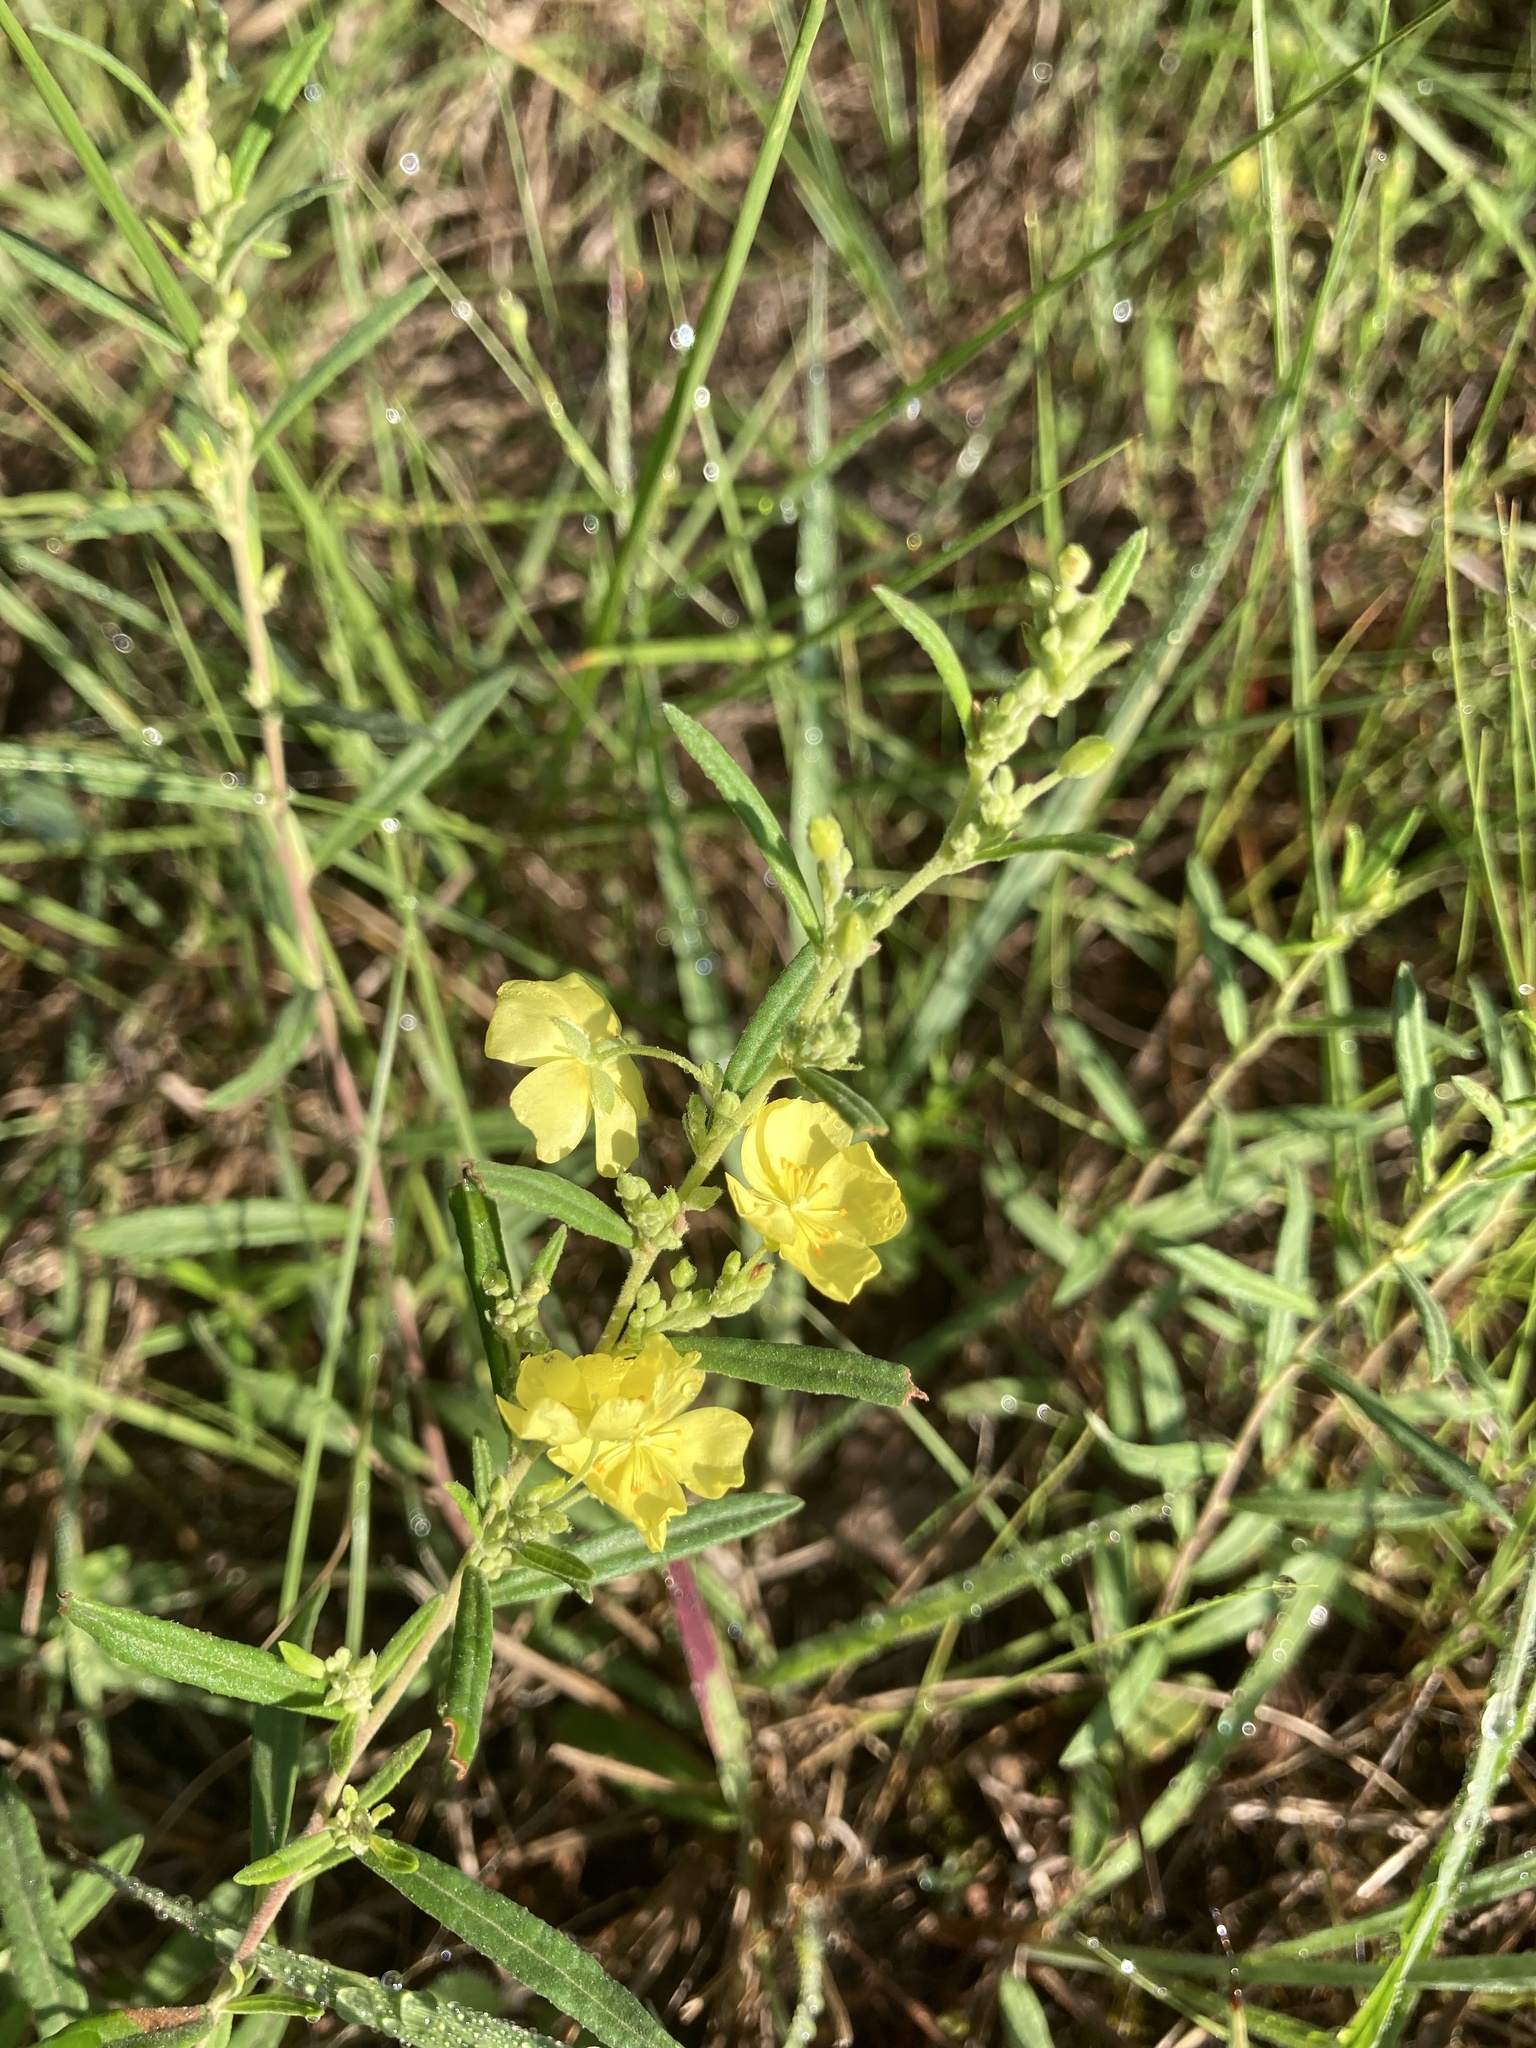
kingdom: Plantae
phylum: Tracheophyta
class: Magnoliopsida
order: Malvales
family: Cistaceae
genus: Crocanthemum
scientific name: Crocanthemum rosmarinifolium
